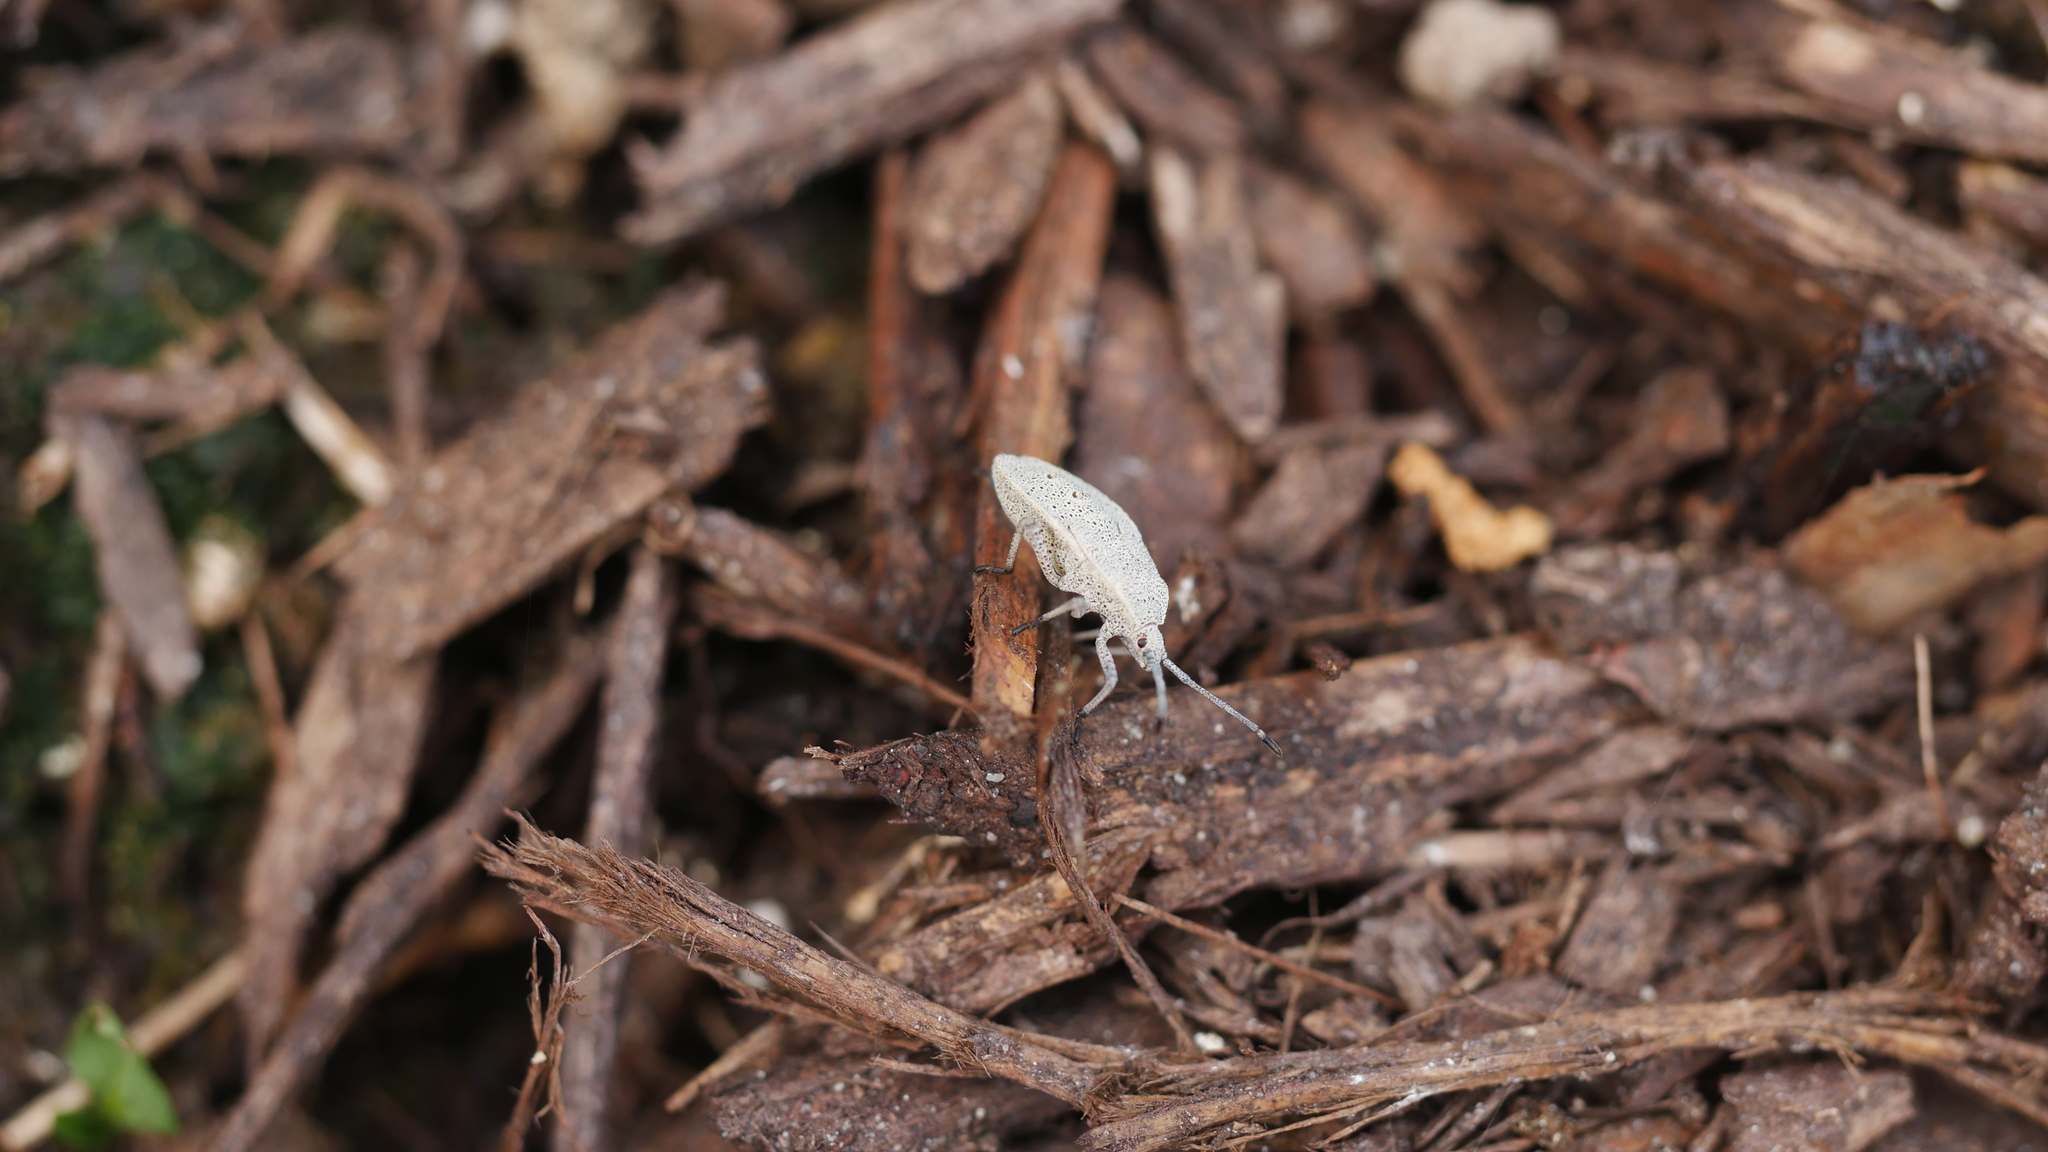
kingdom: Animalia
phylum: Arthropoda
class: Insecta
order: Hemiptera
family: Coreidae
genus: Anasa
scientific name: Anasa tristis
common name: Squash bug
